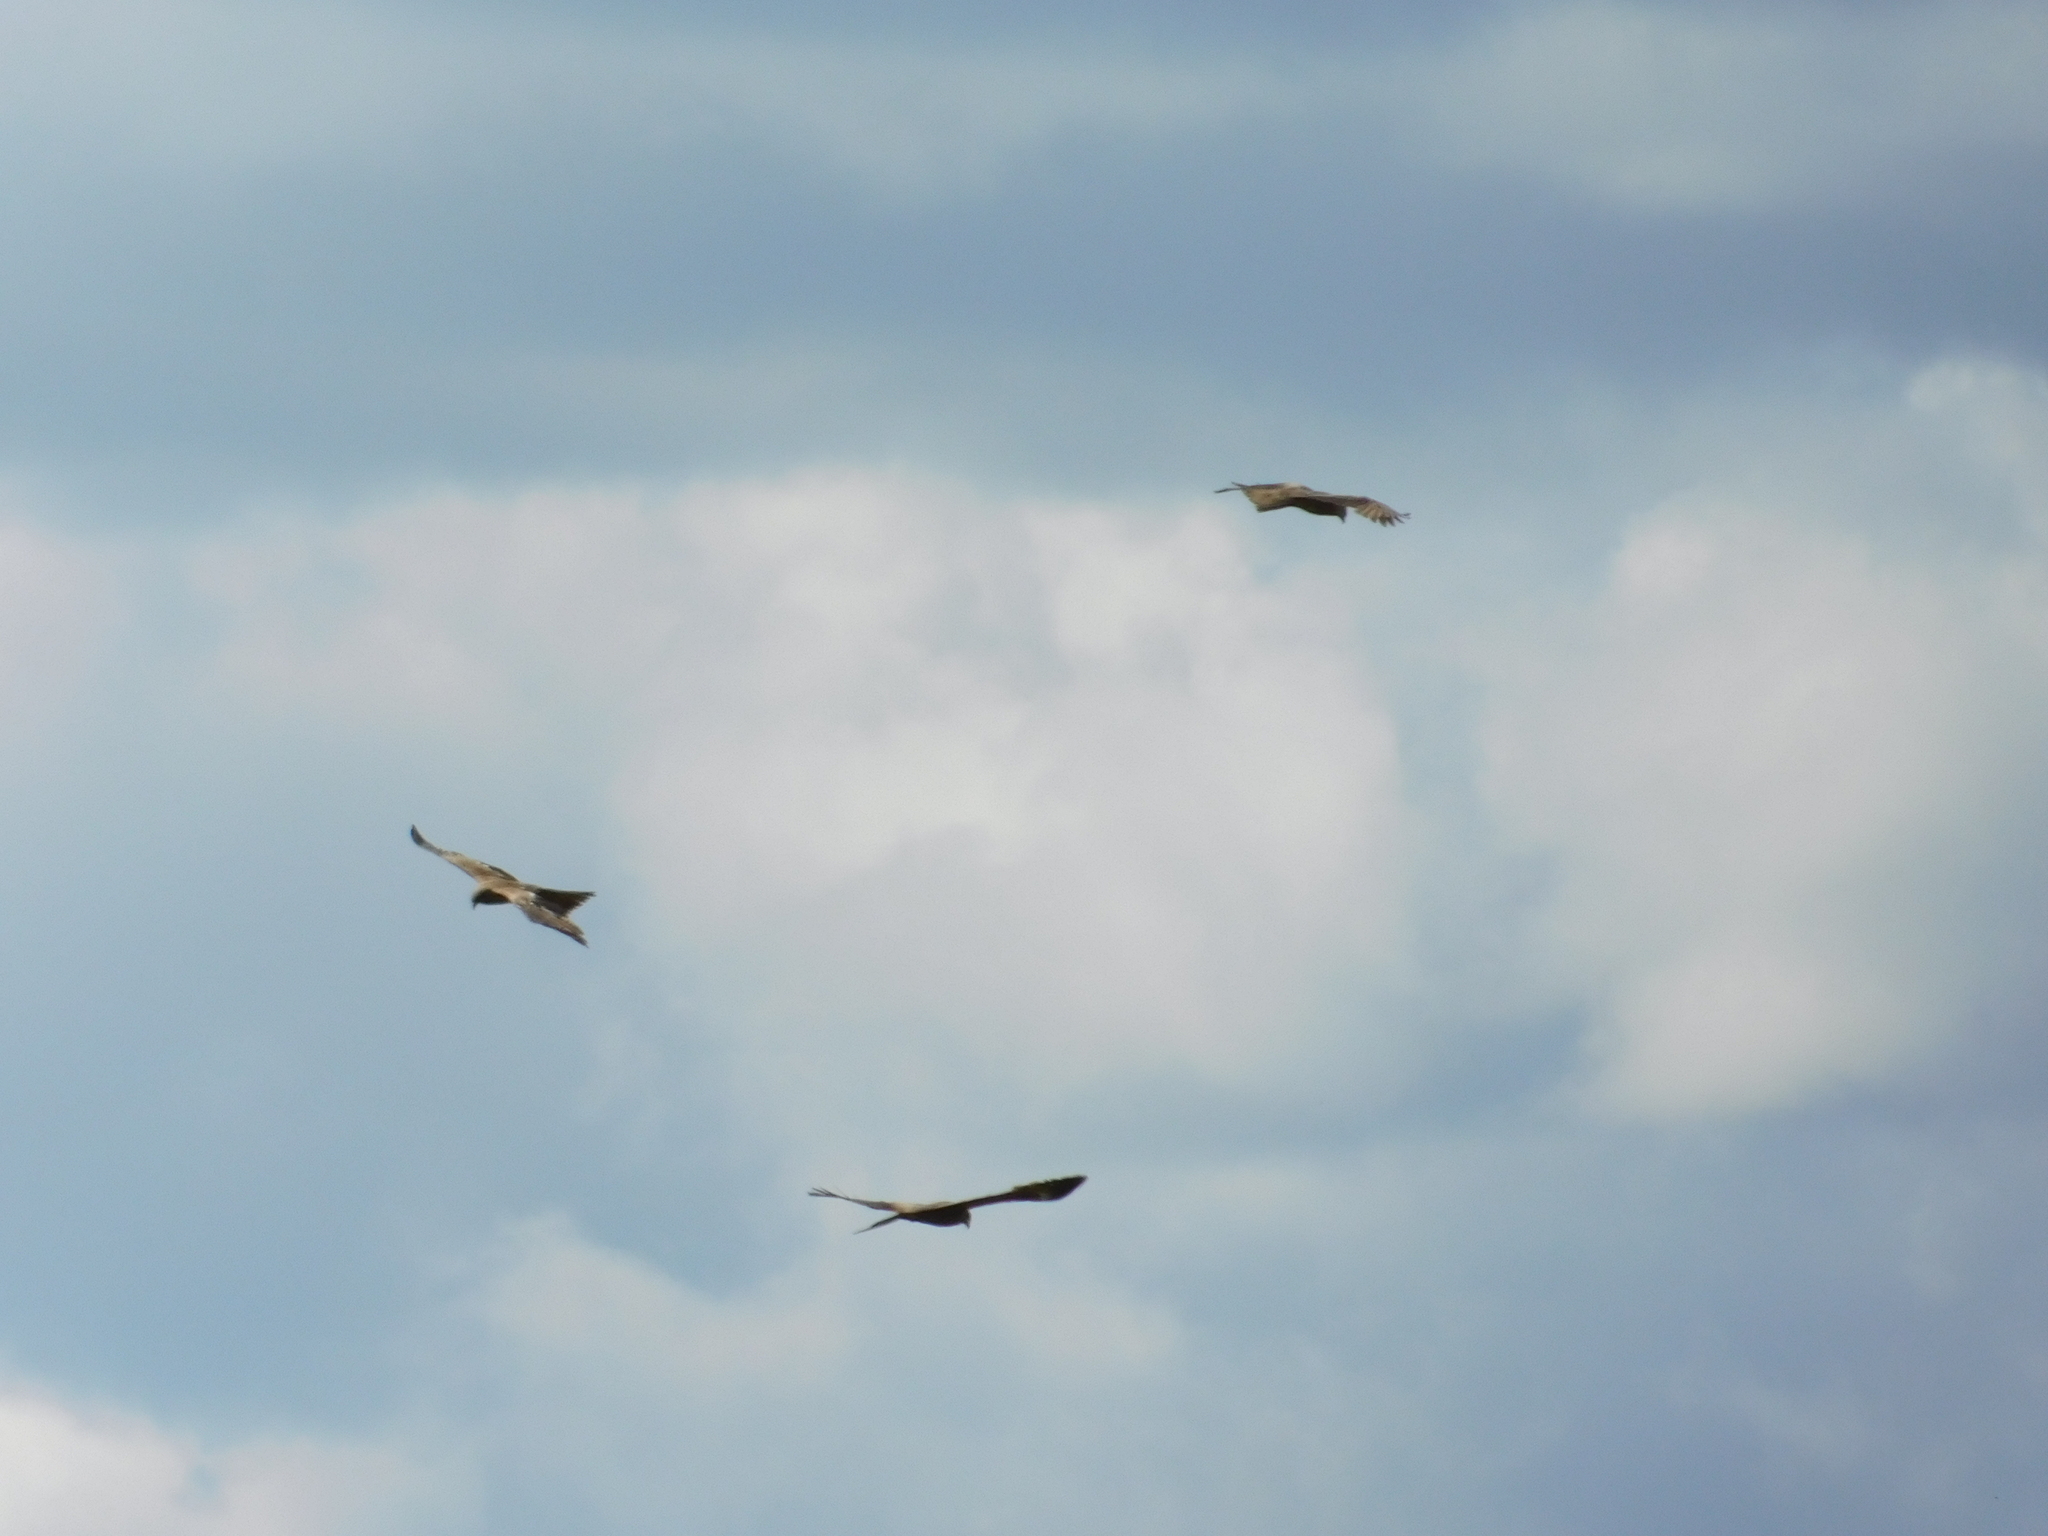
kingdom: Animalia
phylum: Chordata
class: Aves
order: Accipitriformes
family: Accipitridae
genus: Milvus
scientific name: Milvus migrans
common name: Black kite
